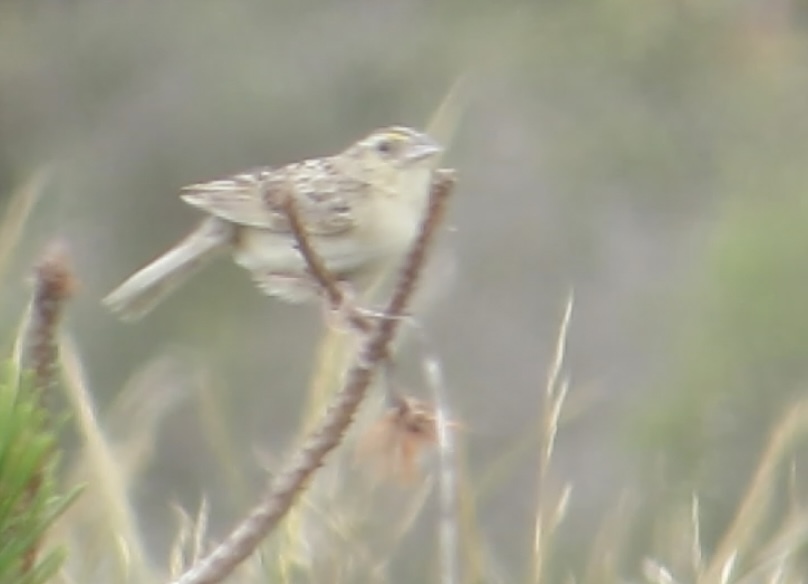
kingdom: Animalia
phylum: Chordata
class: Aves
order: Passeriformes
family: Passerellidae
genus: Ammodramus
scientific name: Ammodramus savannarum
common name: Grasshopper sparrow
